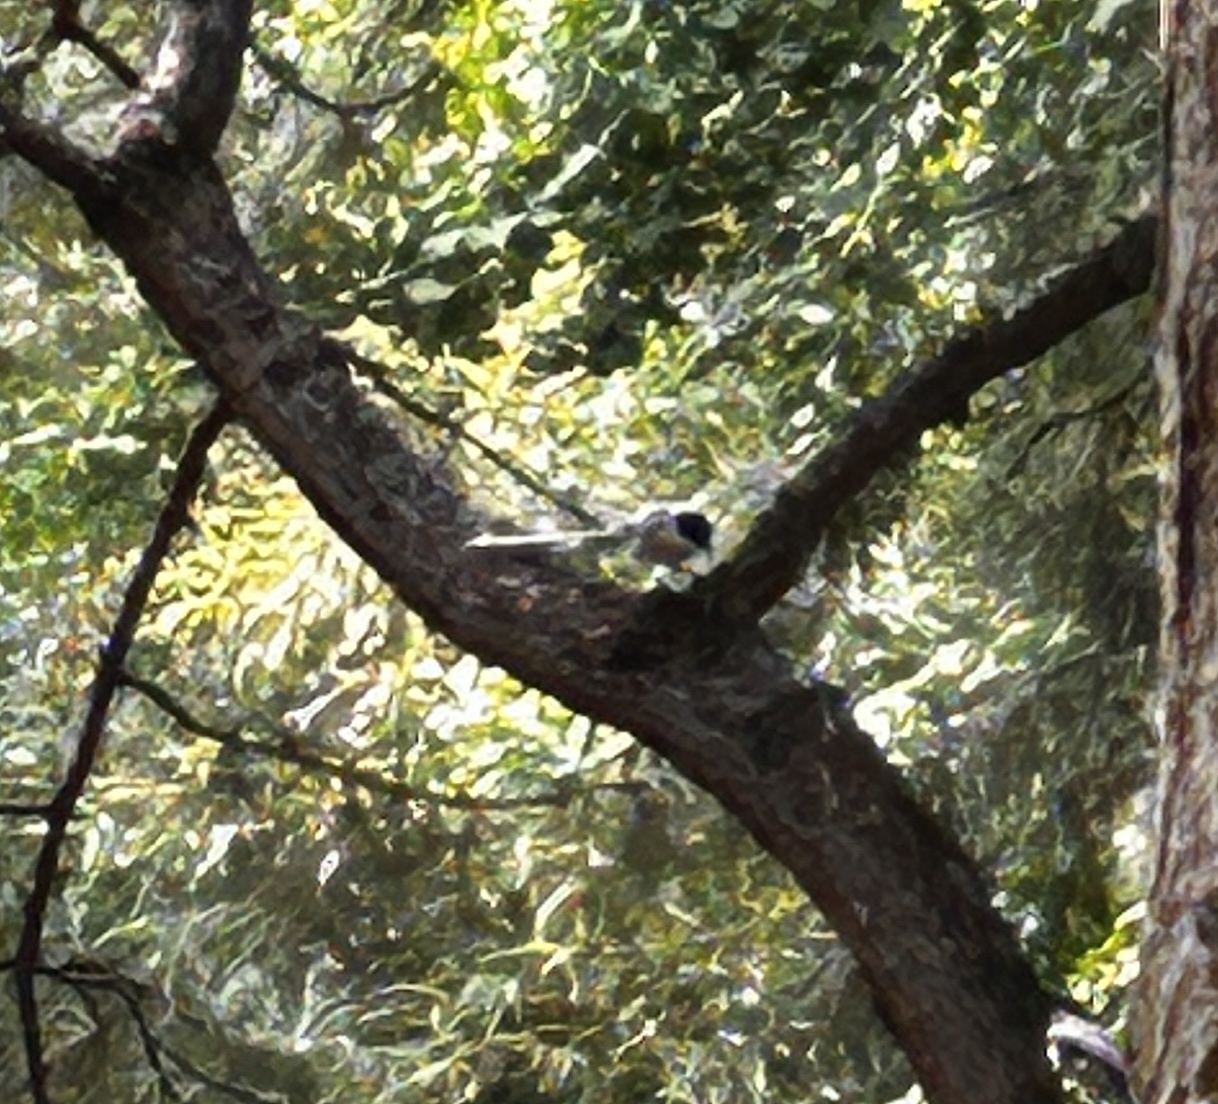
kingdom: Animalia
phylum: Chordata
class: Aves
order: Passeriformes
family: Corvidae
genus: Cyanopica
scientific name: Cyanopica cyanus
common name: Azure-winged magpie
